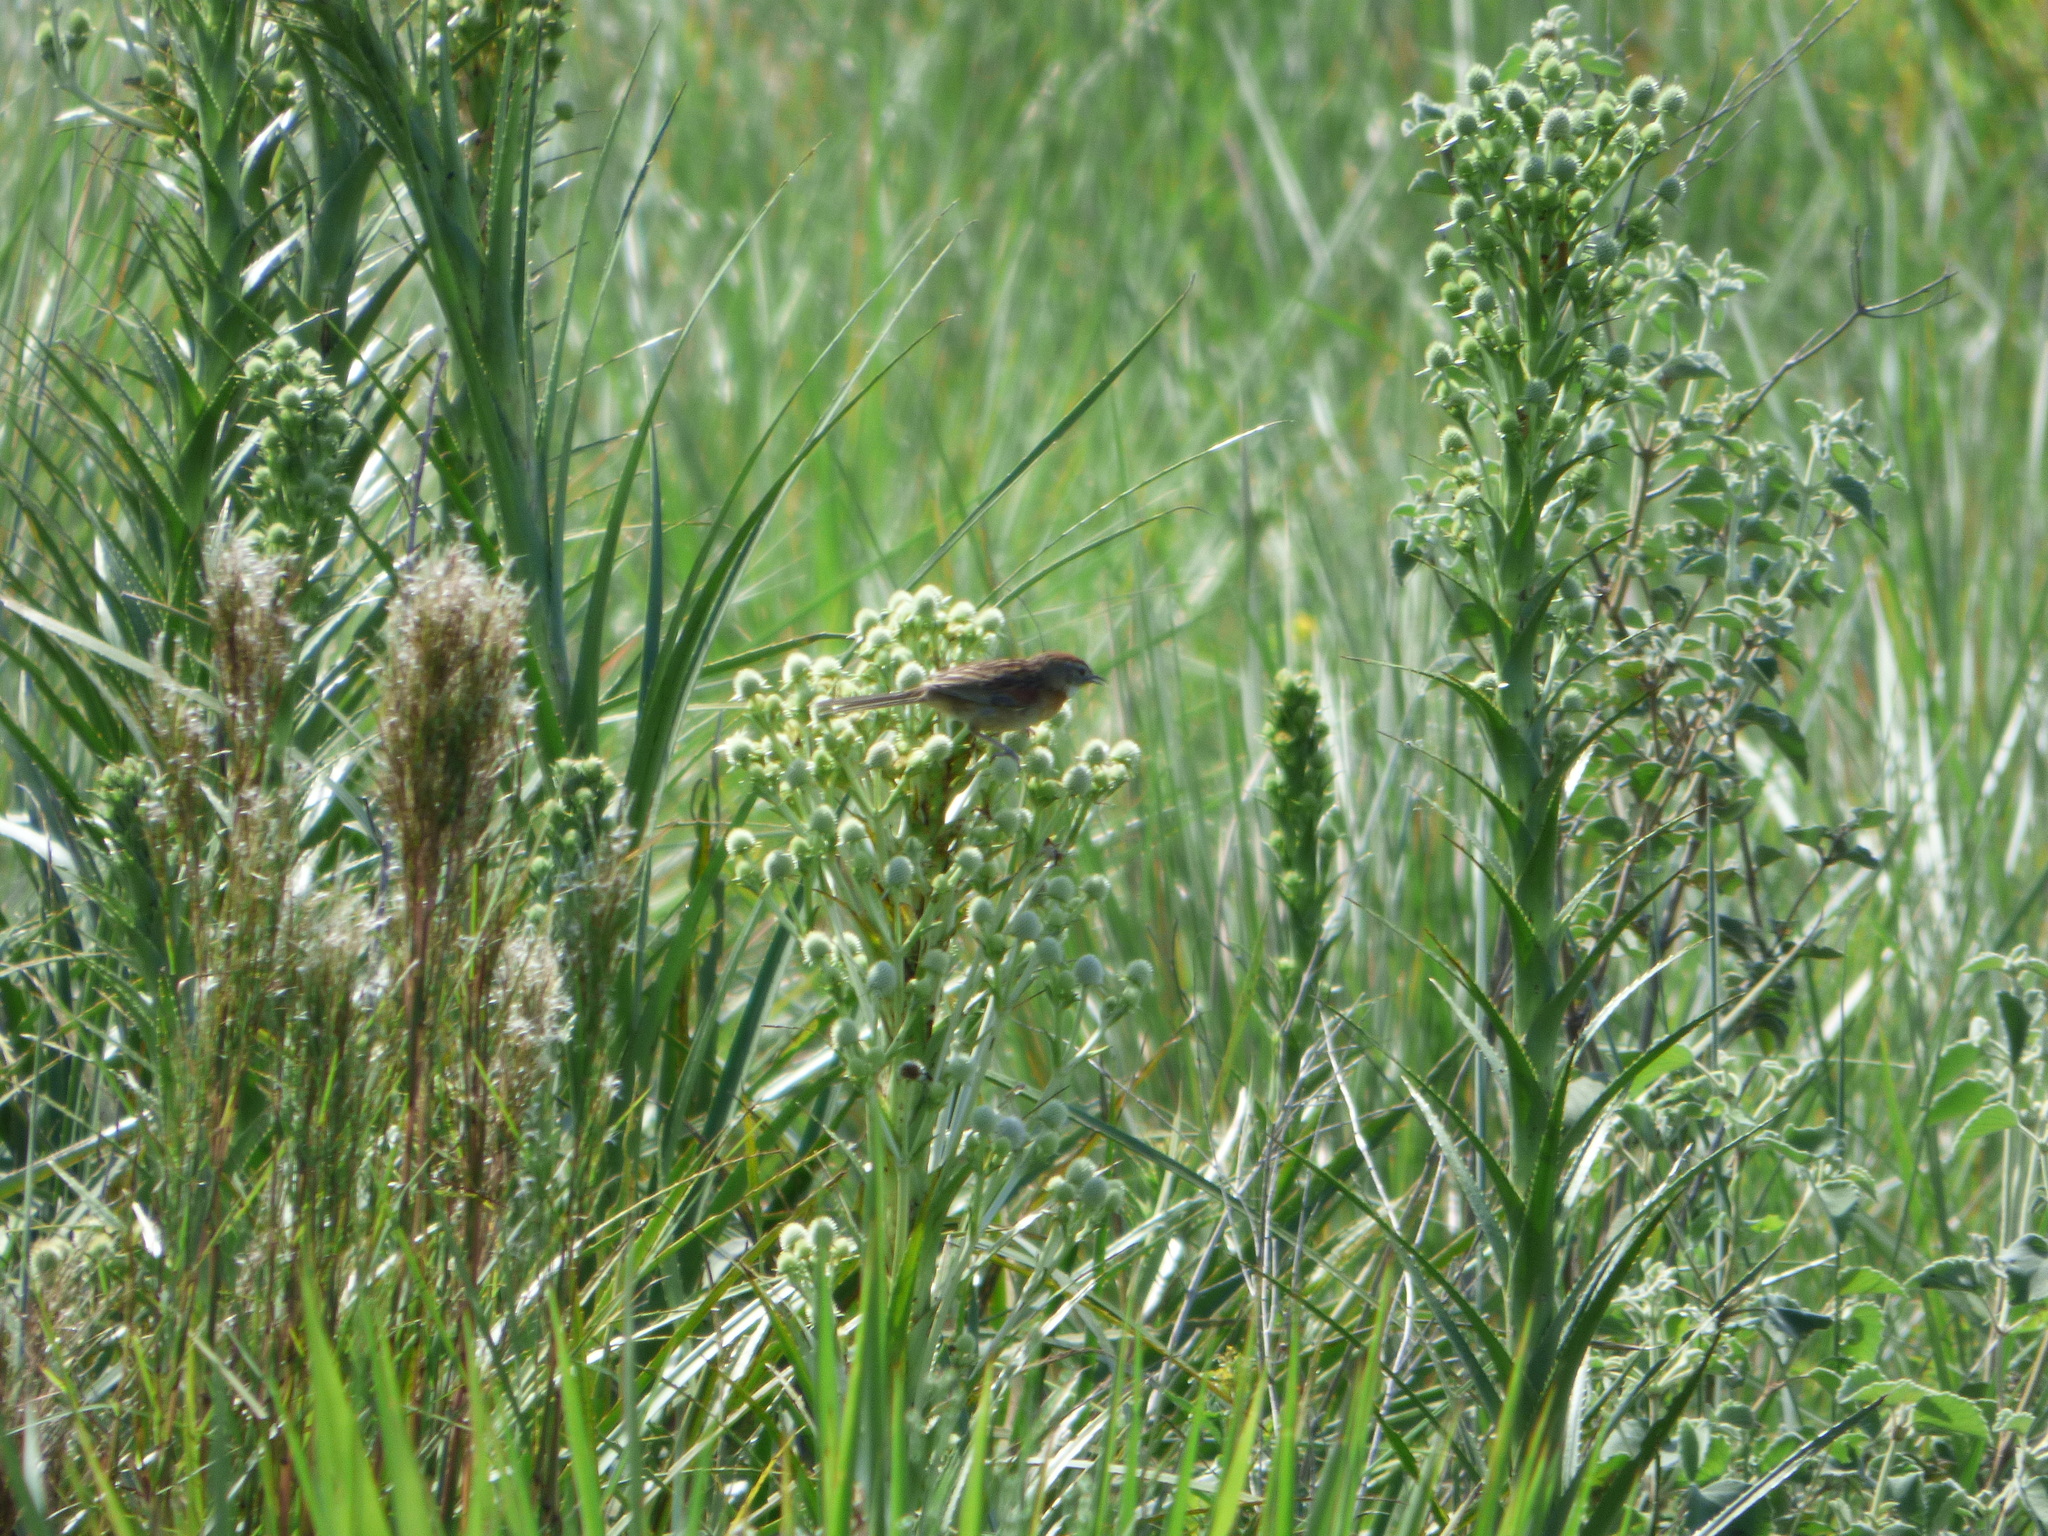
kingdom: Animalia
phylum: Chordata
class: Aves
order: Passeriformes
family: Furnariidae
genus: Schoeniophylax
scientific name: Schoeniophylax phryganophilus
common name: Chotoy spinetail
